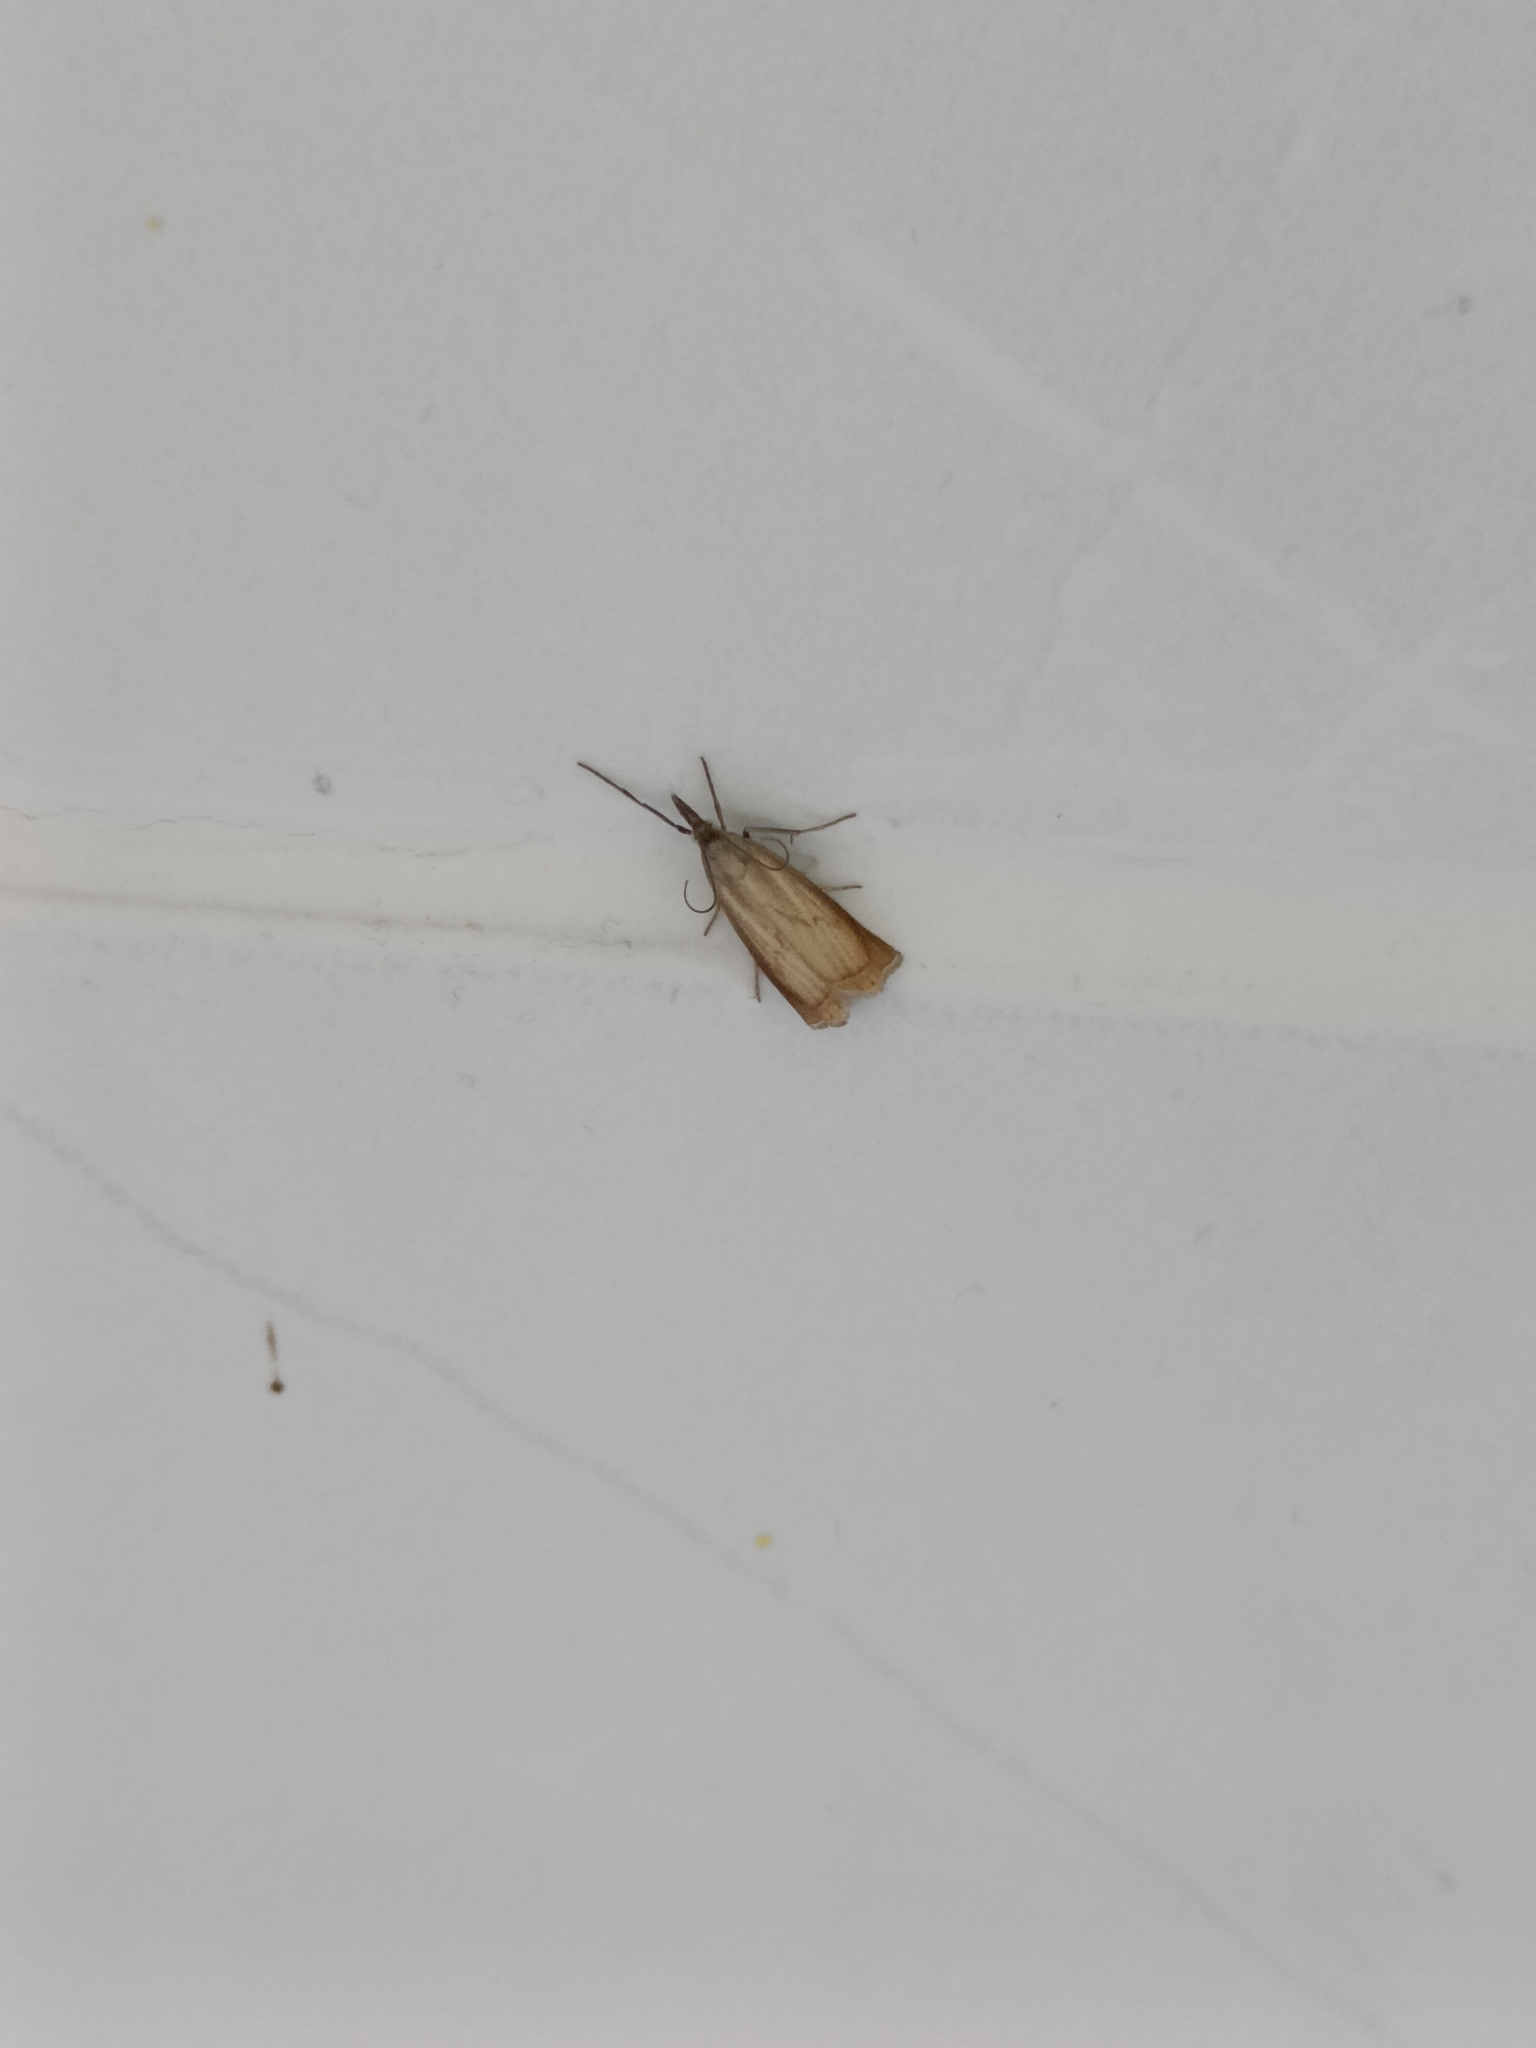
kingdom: Animalia
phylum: Arthropoda
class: Insecta
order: Lepidoptera
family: Crambidae
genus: Chrysoteuchia
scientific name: Chrysoteuchia culmella
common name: Garden grass-veneer
